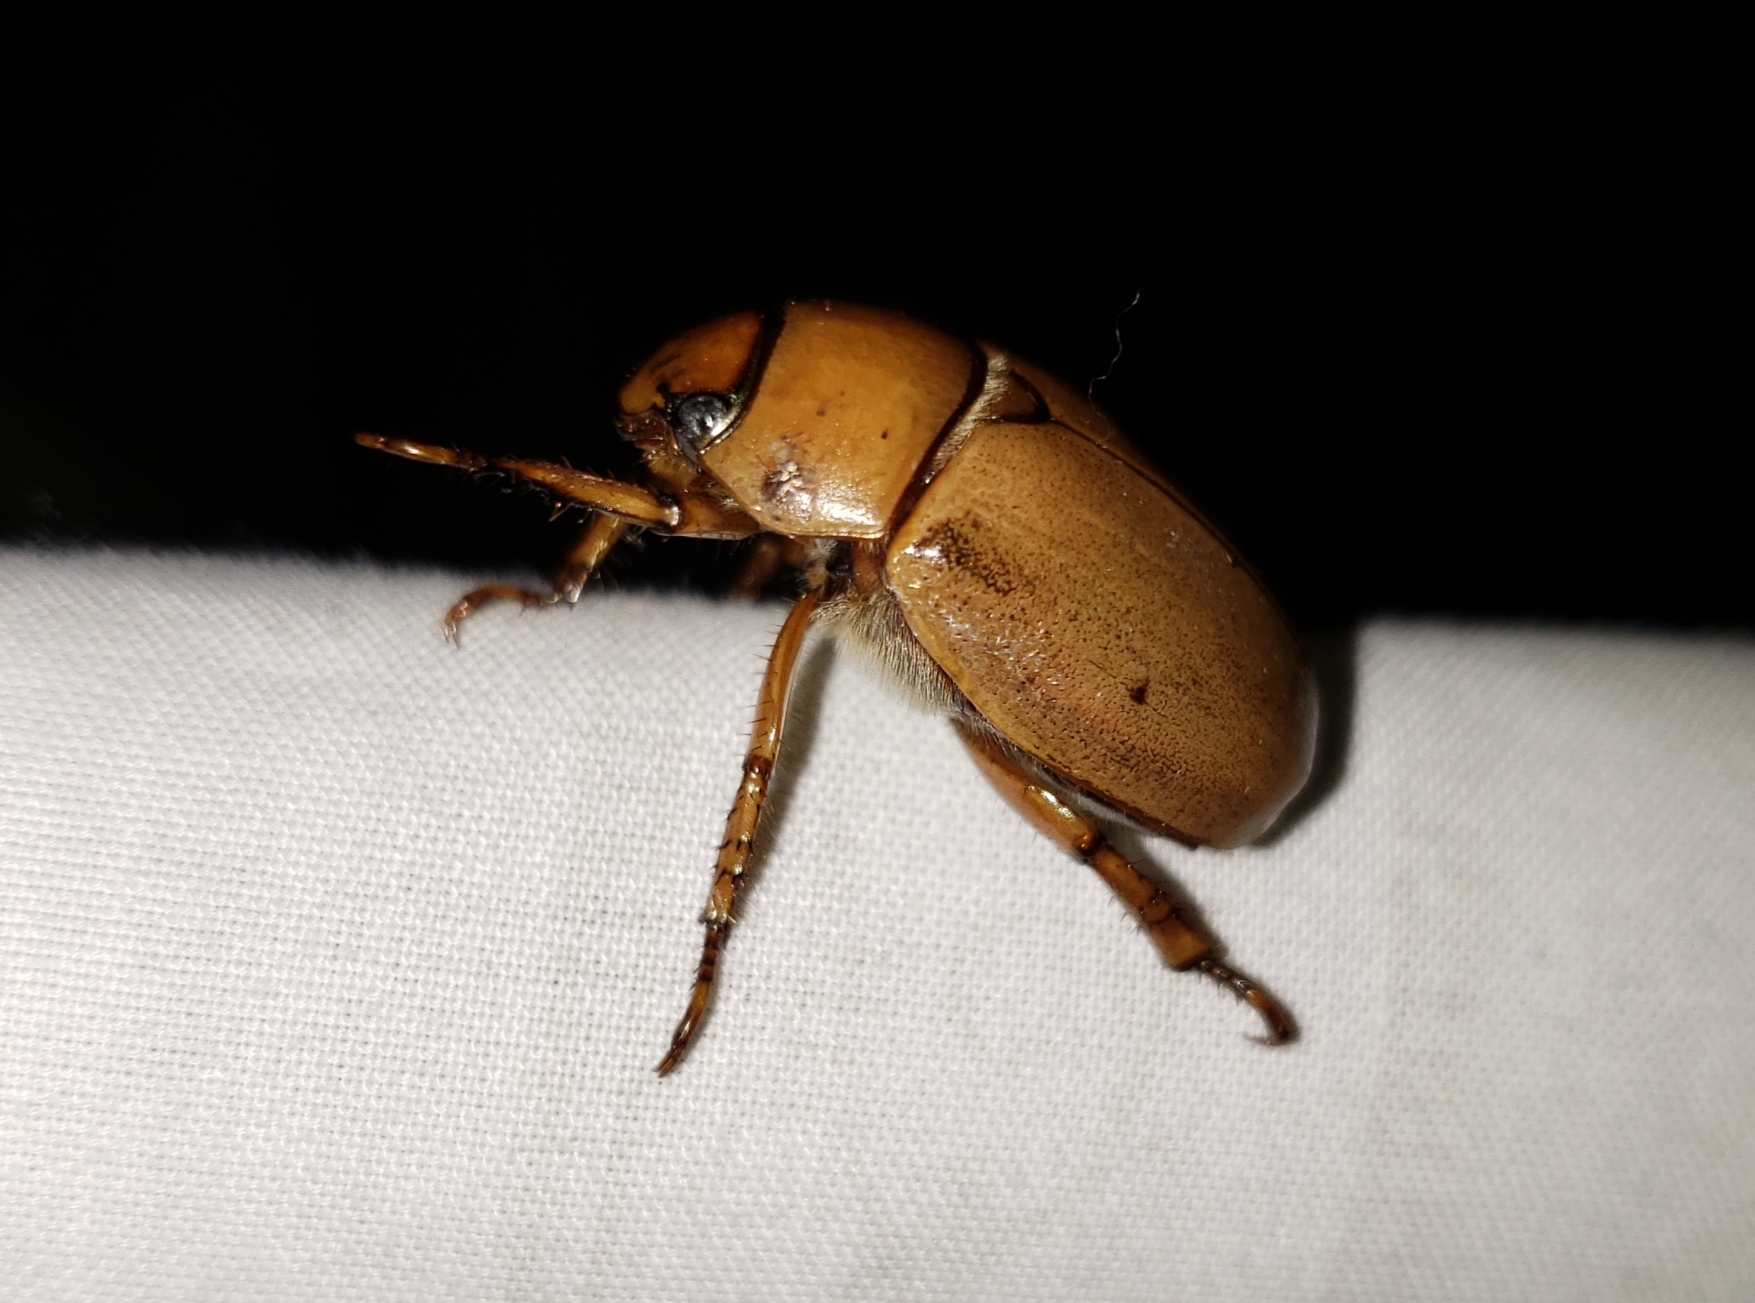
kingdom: Animalia
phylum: Arthropoda
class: Insecta
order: Coleoptera
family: Scarabaeidae
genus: Pelidnota
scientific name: Pelidnota punctata
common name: Grapevine beetle
